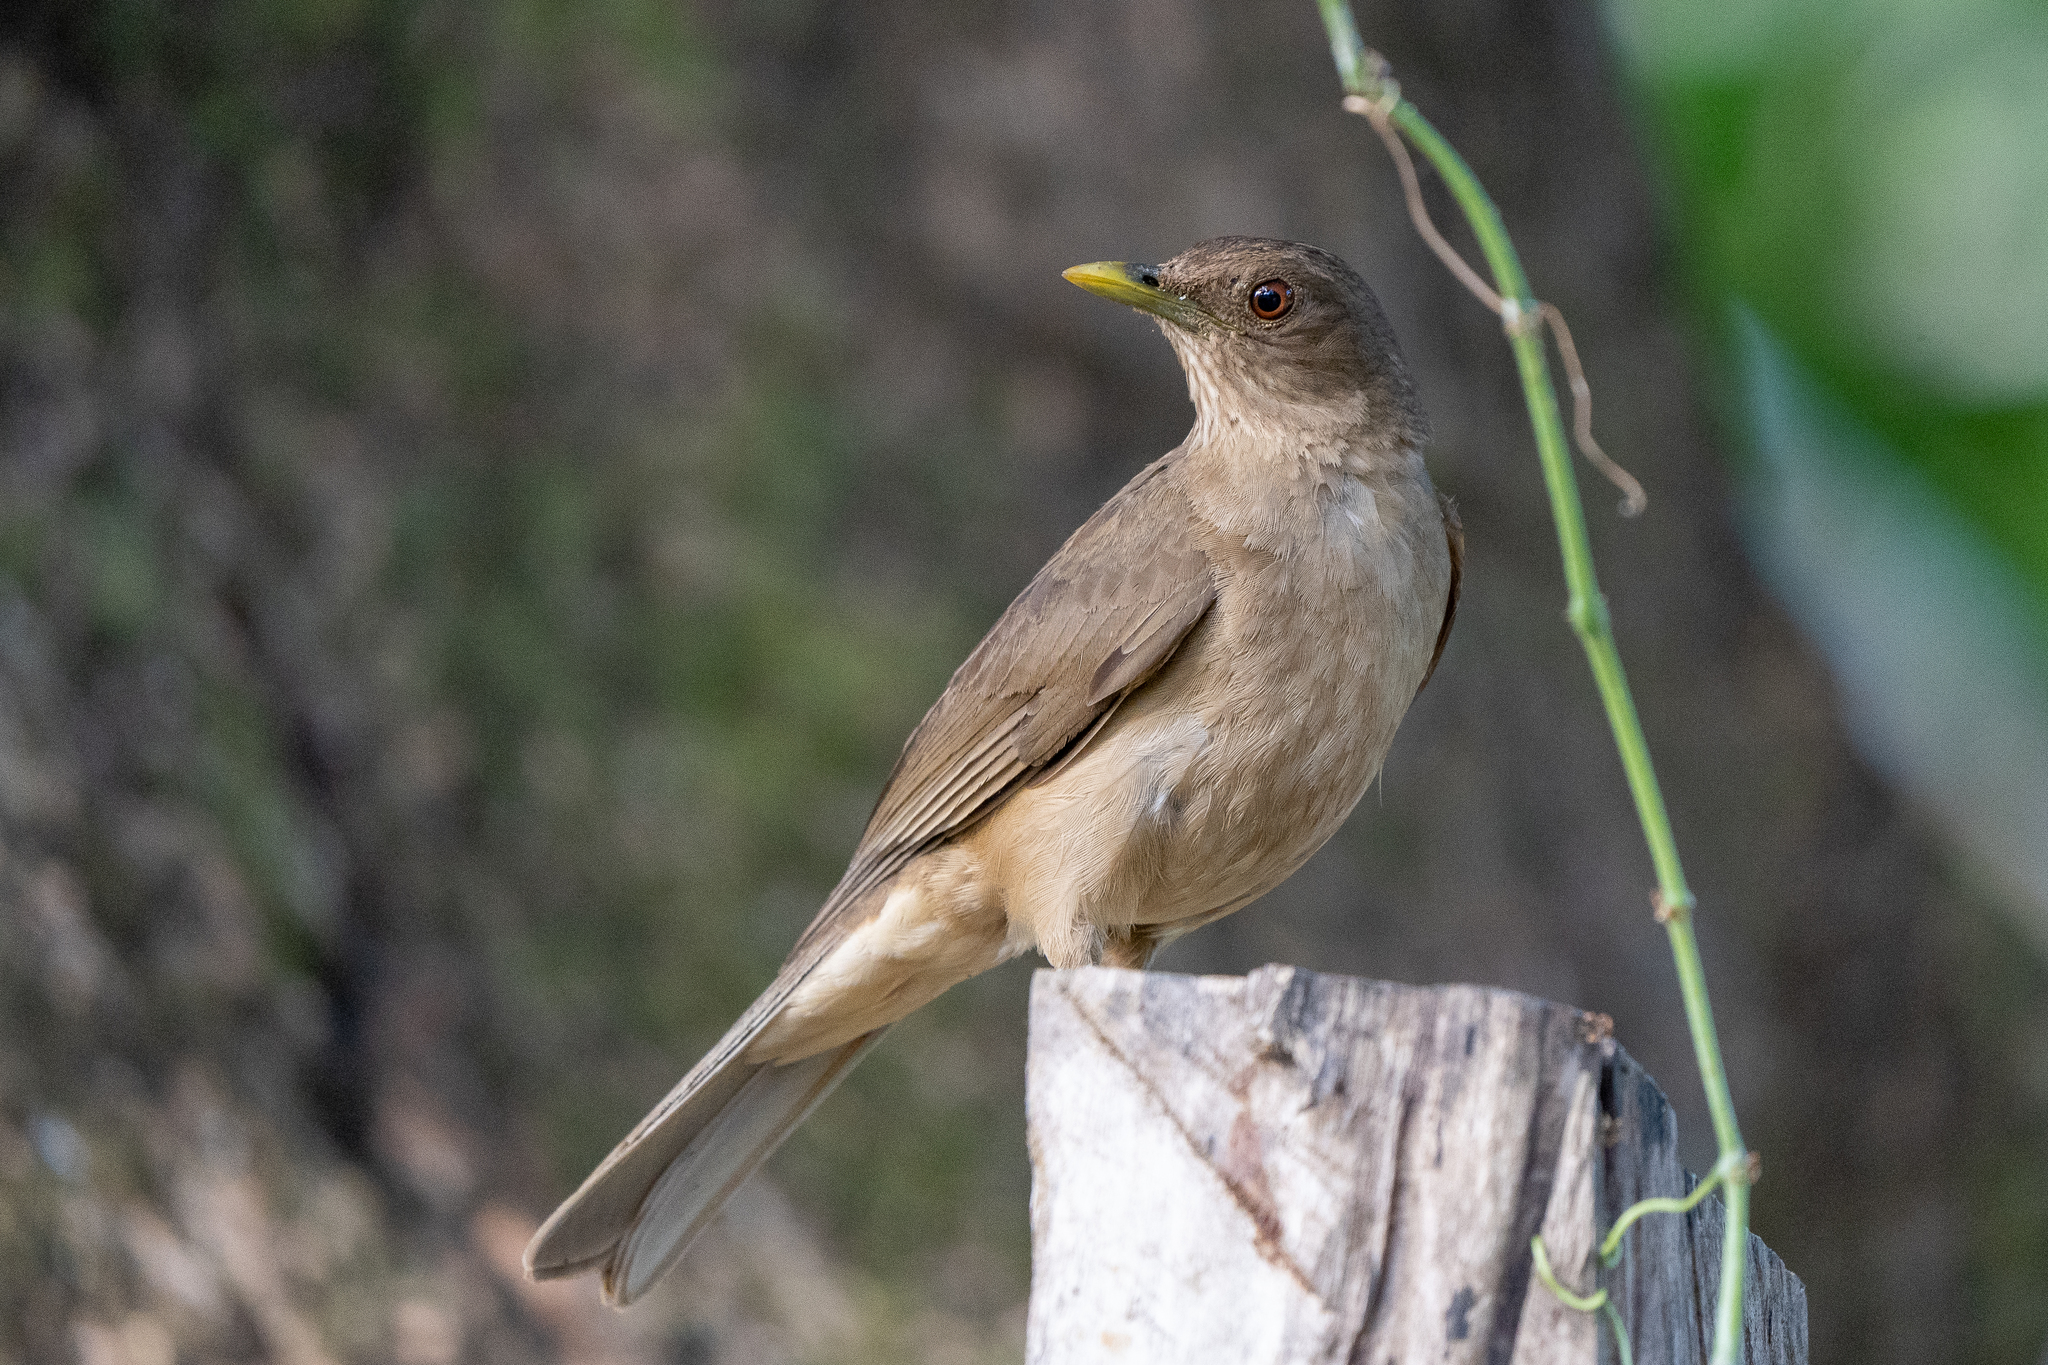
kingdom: Animalia
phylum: Chordata
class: Aves
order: Passeriformes
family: Turdidae
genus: Turdus
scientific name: Turdus grayi
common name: Clay-colored thrush
